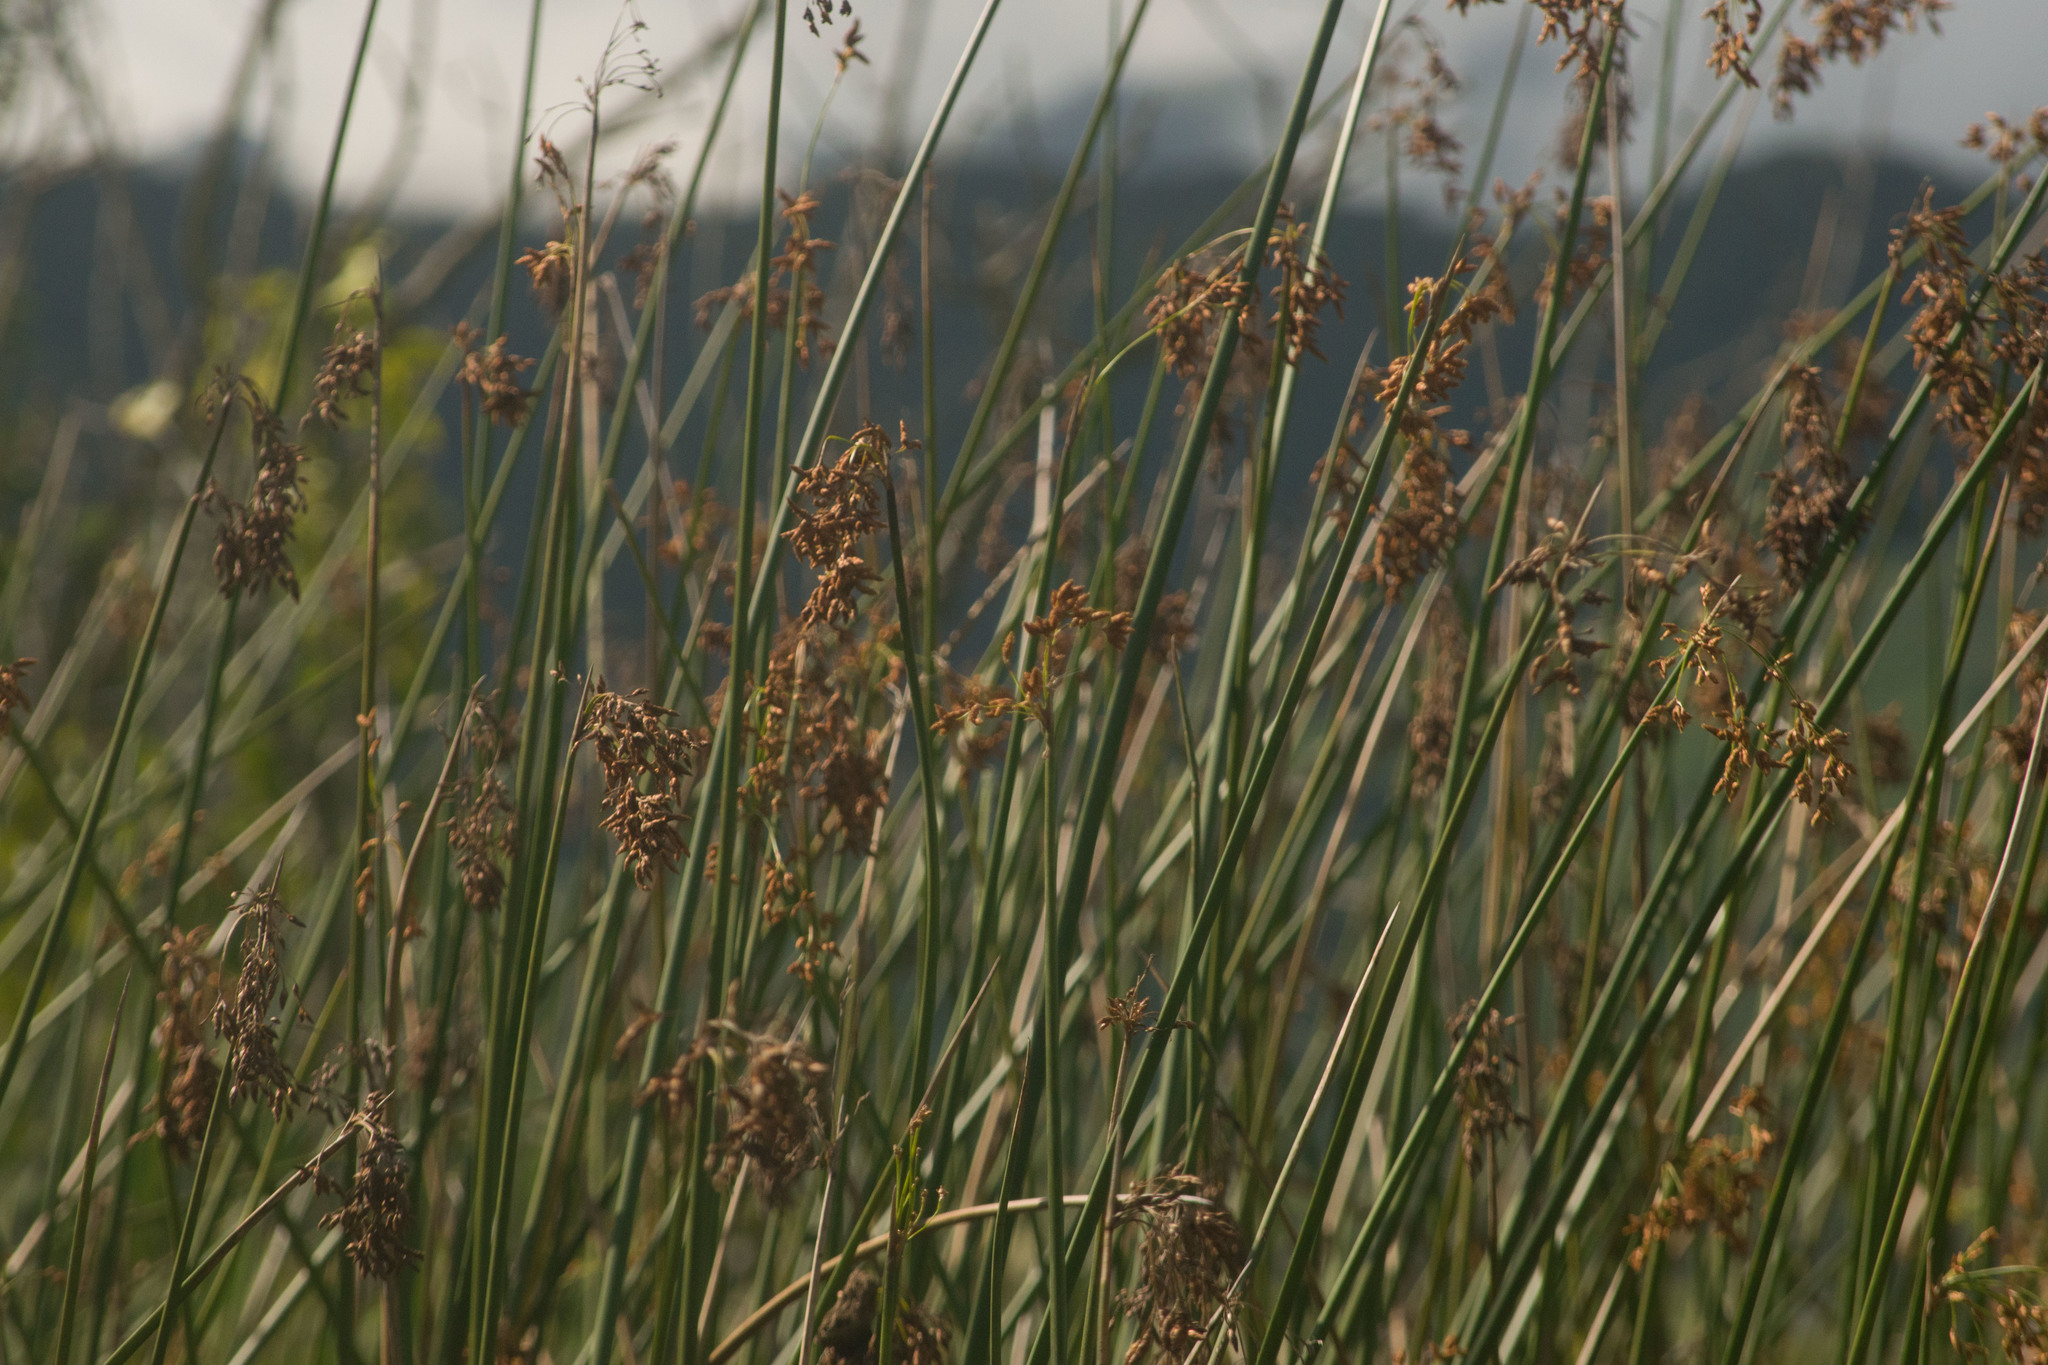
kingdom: Plantae
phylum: Tracheophyta
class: Liliopsida
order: Poales
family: Cyperaceae
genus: Schoenoplectus
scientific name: Schoenoplectus californicus
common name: California bulrush
